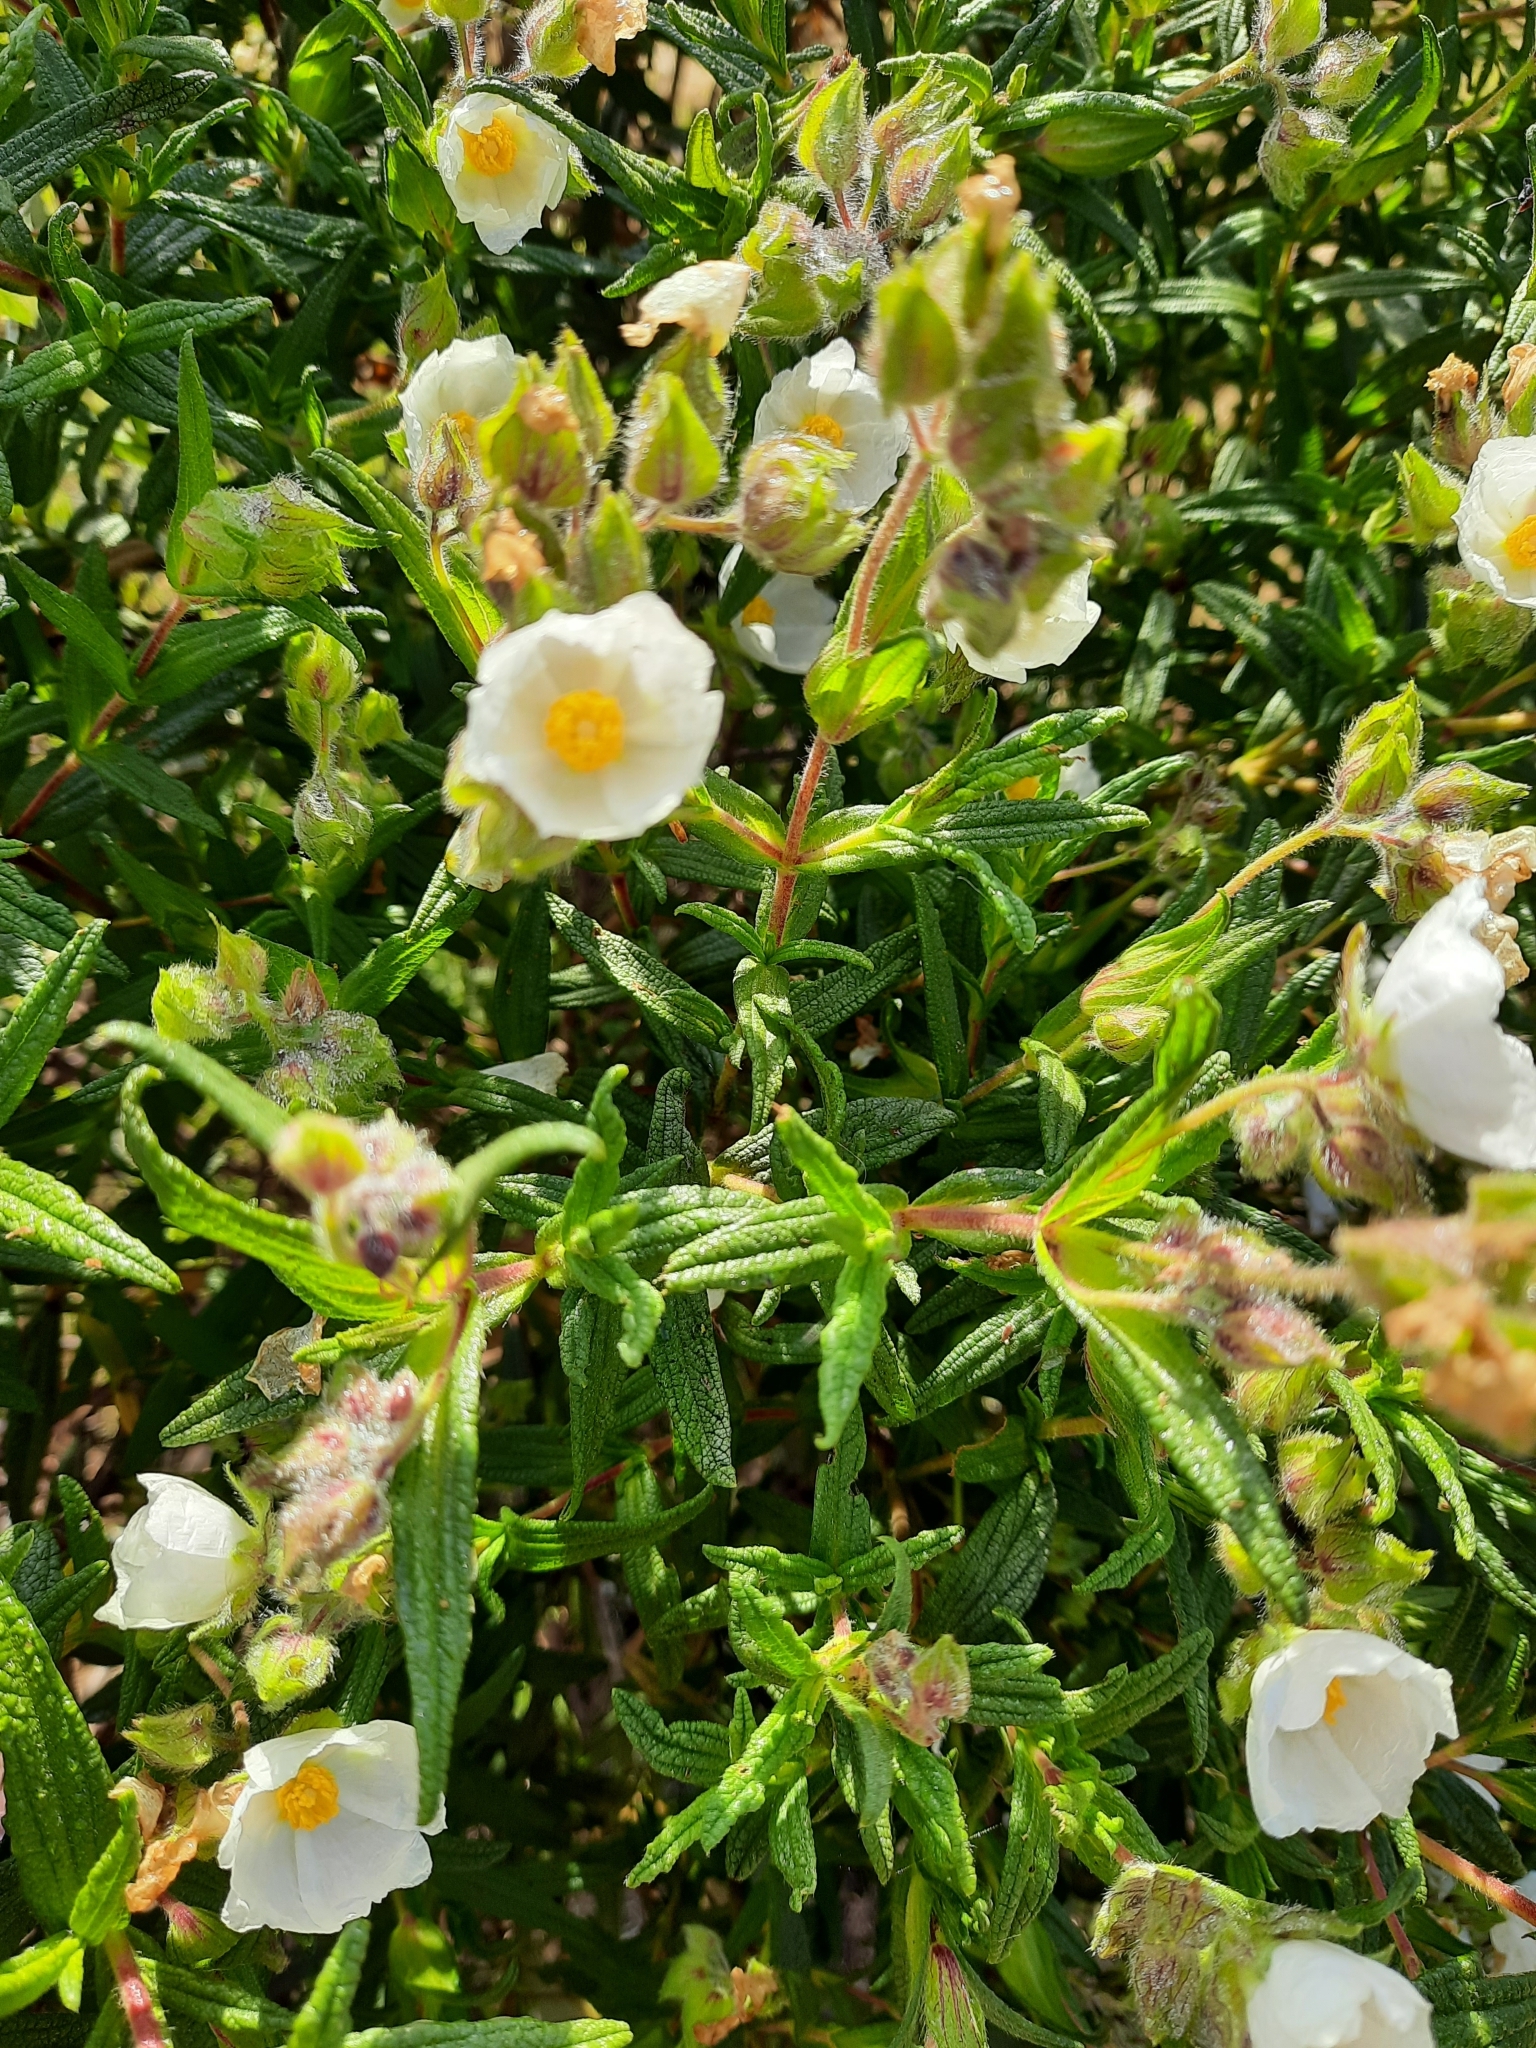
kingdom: Plantae
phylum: Tracheophyta
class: Magnoliopsida
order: Malvales
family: Cistaceae
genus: Cistus
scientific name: Cistus monspeliensis
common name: Montpelier cistus
